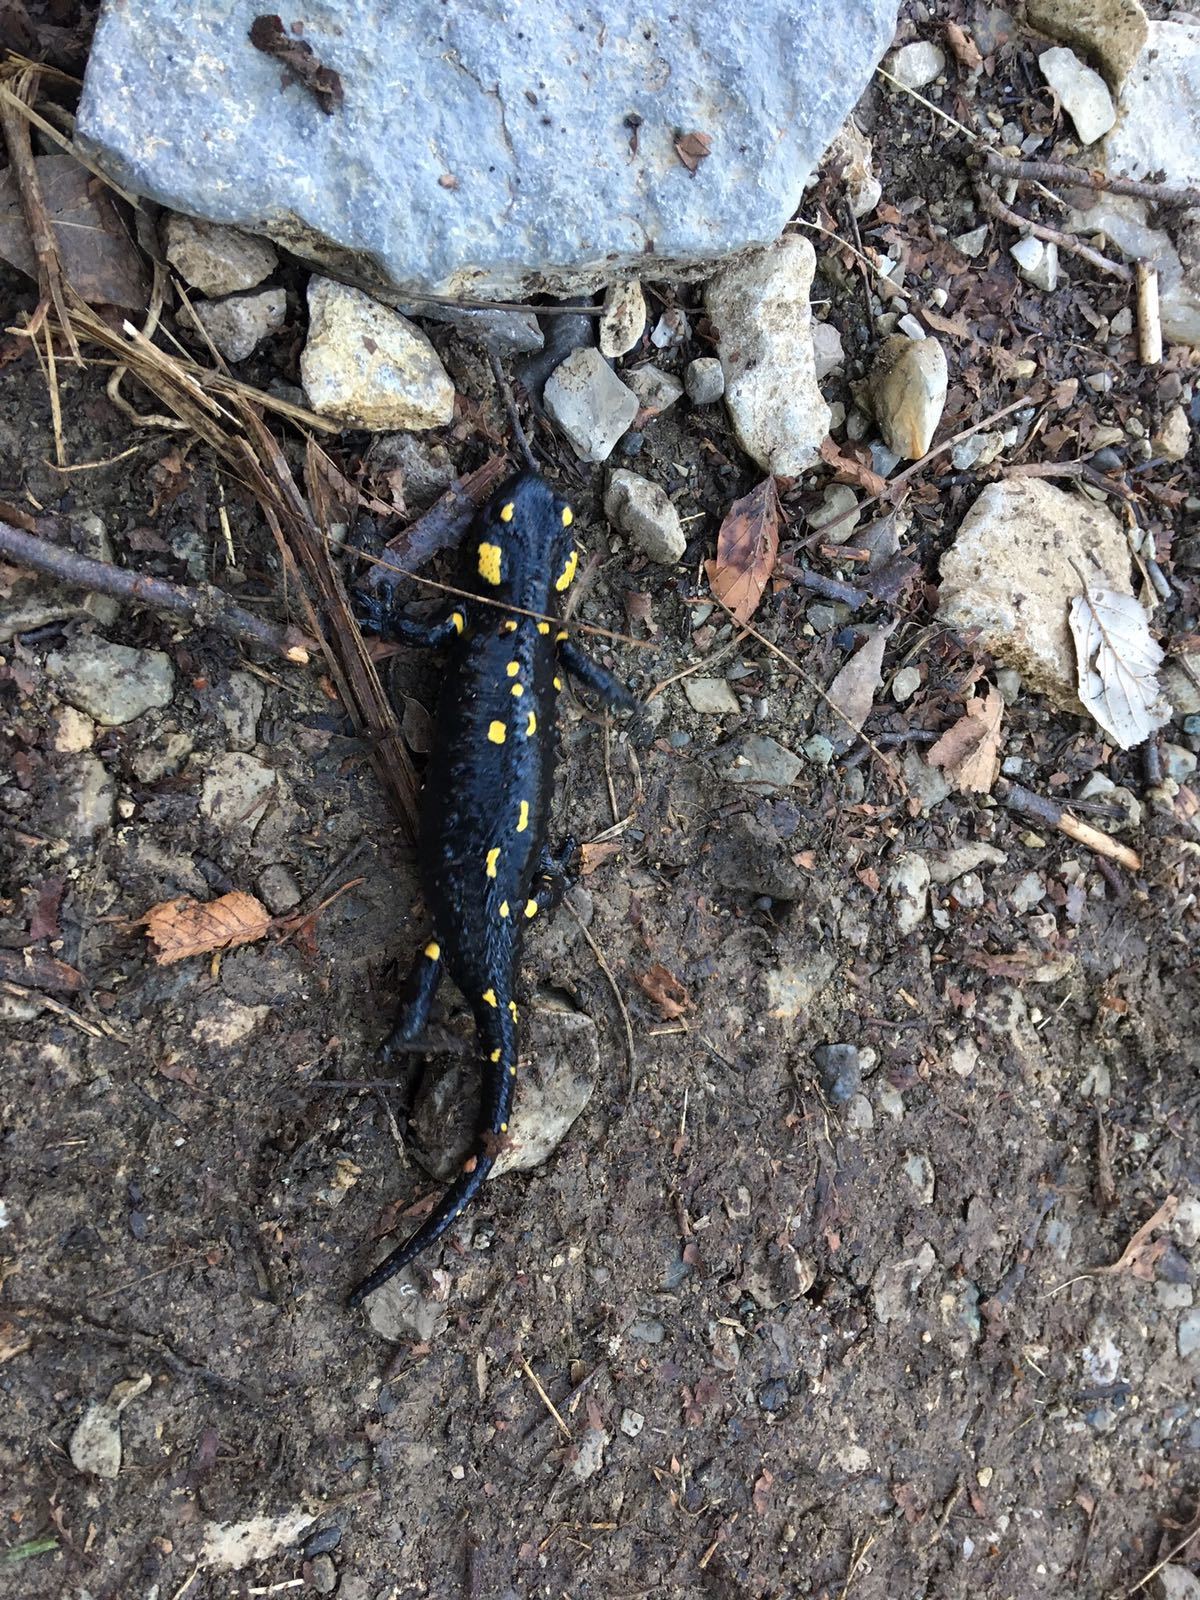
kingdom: Animalia
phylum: Chordata
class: Amphibia
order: Caudata
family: Salamandridae
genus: Salamandra
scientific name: Salamandra salamandra
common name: Fire salamander
